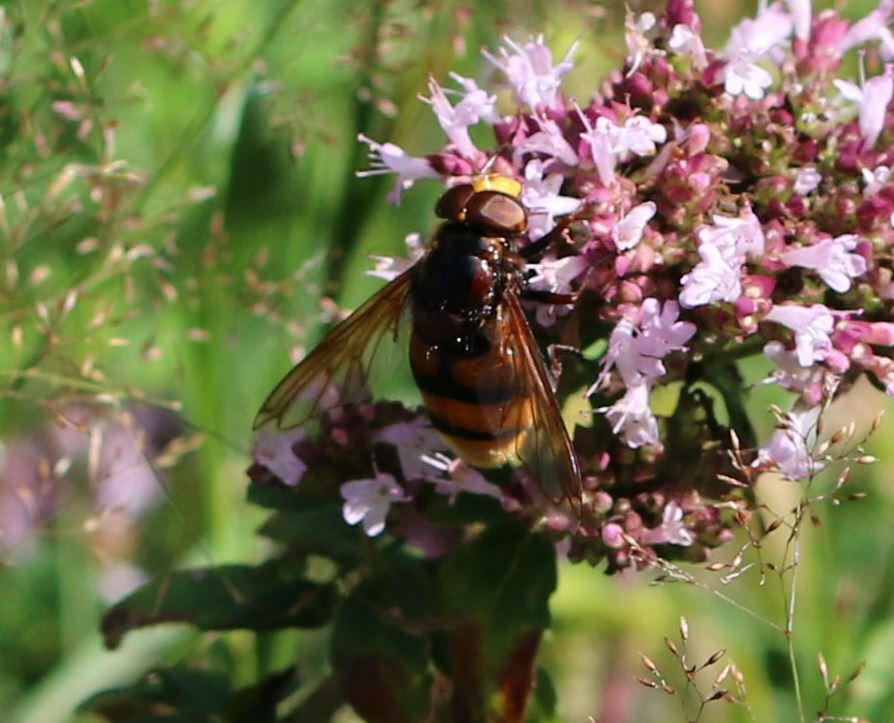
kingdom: Animalia
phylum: Arthropoda
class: Insecta
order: Diptera
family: Syrphidae
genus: Volucella
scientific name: Volucella zonaria
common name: Hornet hoverfly
